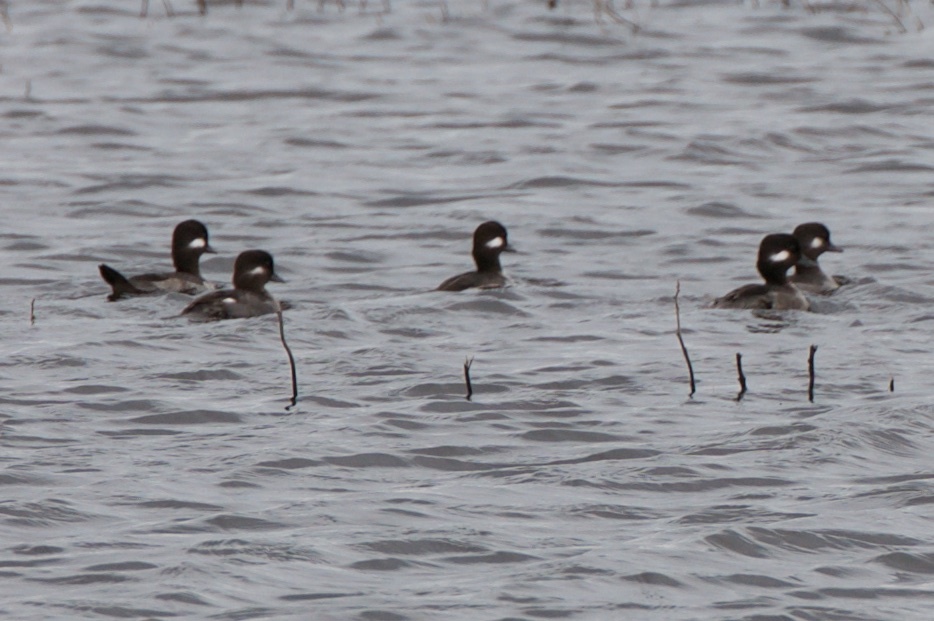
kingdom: Animalia
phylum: Chordata
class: Aves
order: Anseriformes
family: Anatidae
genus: Bucephala
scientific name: Bucephala albeola
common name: Bufflehead
